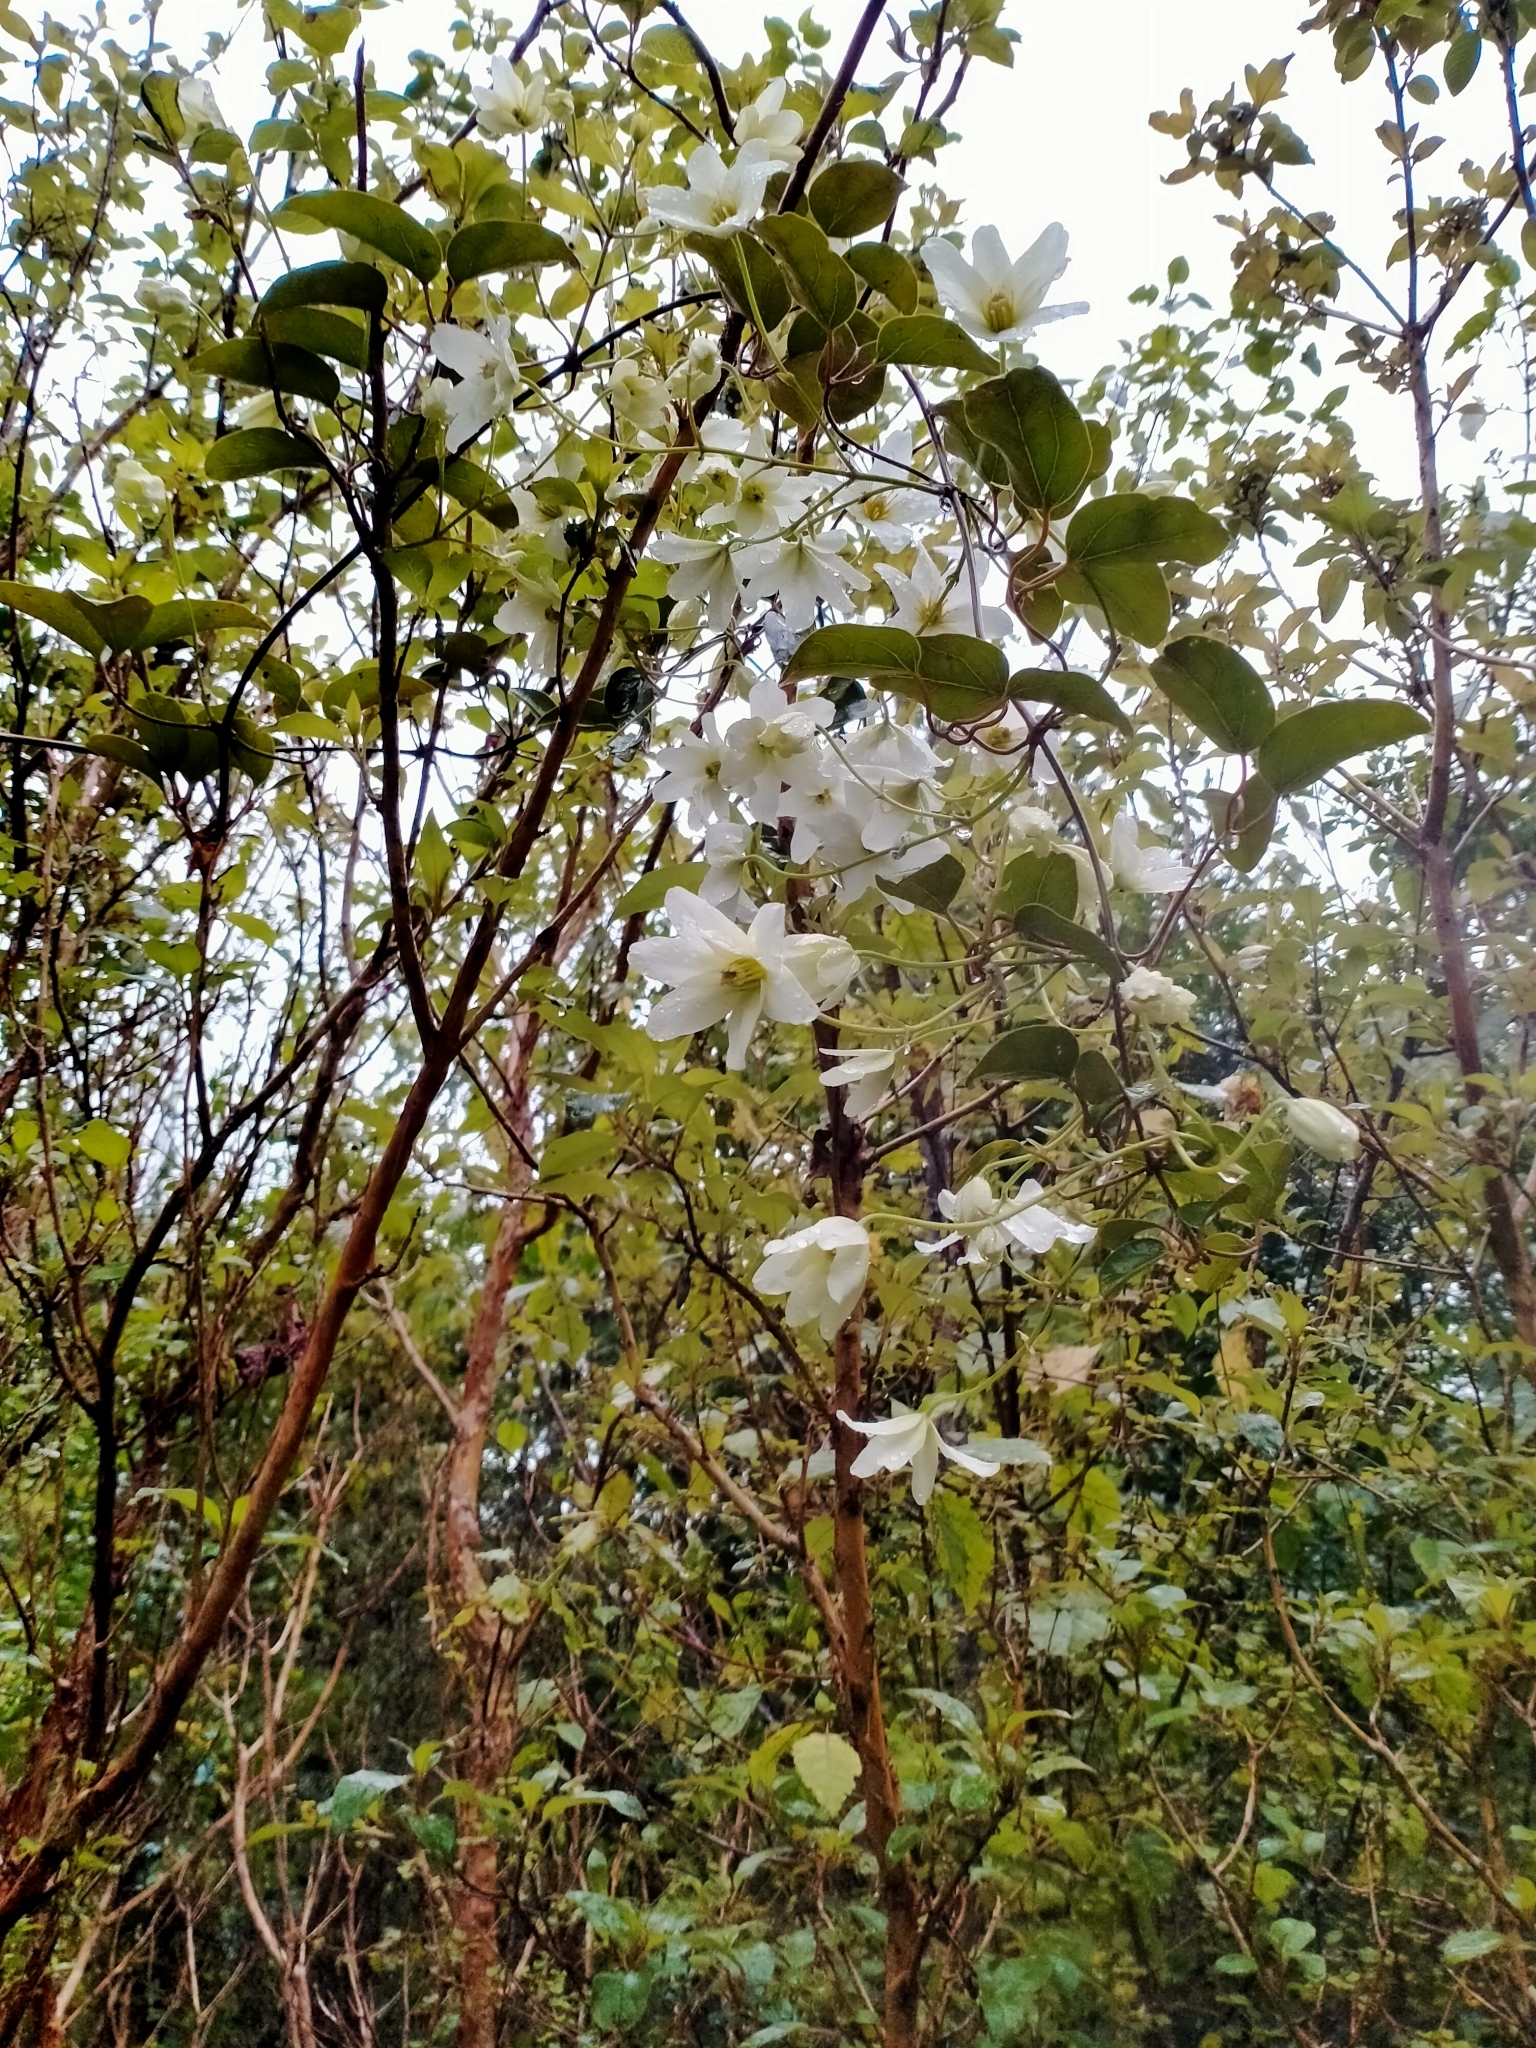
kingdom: Plantae
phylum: Tracheophyta
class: Magnoliopsida
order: Ranunculales
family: Ranunculaceae
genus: Clematis
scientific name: Clematis paniculata
